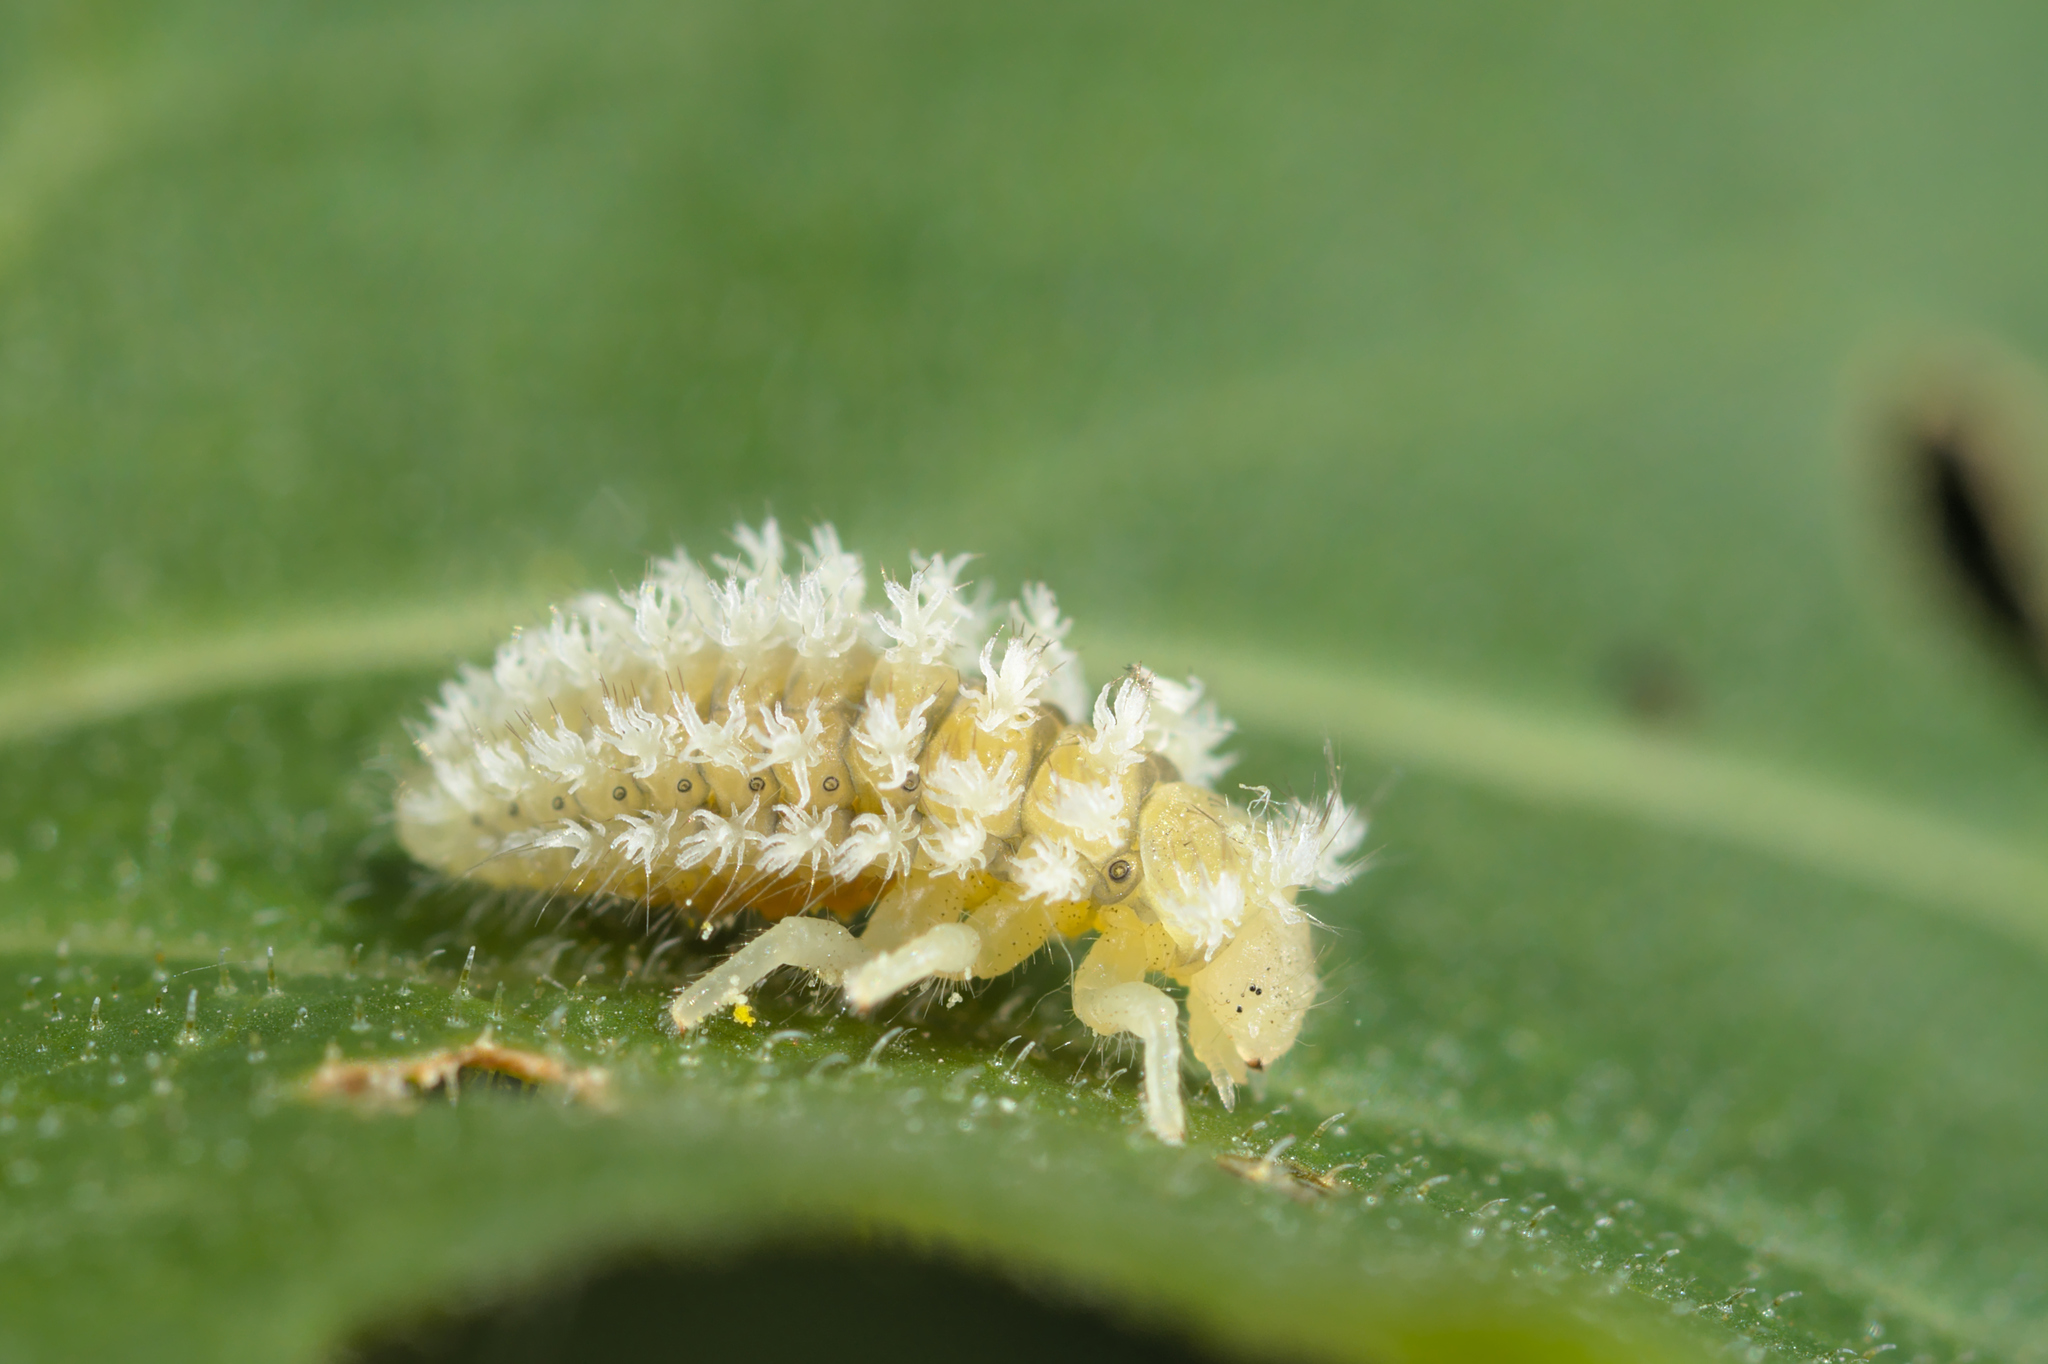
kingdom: Animalia
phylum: Arthropoda
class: Insecta
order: Coleoptera
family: Coccinellidae
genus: Henosepilachna
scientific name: Henosepilachna argus
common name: Bryony ladybird
